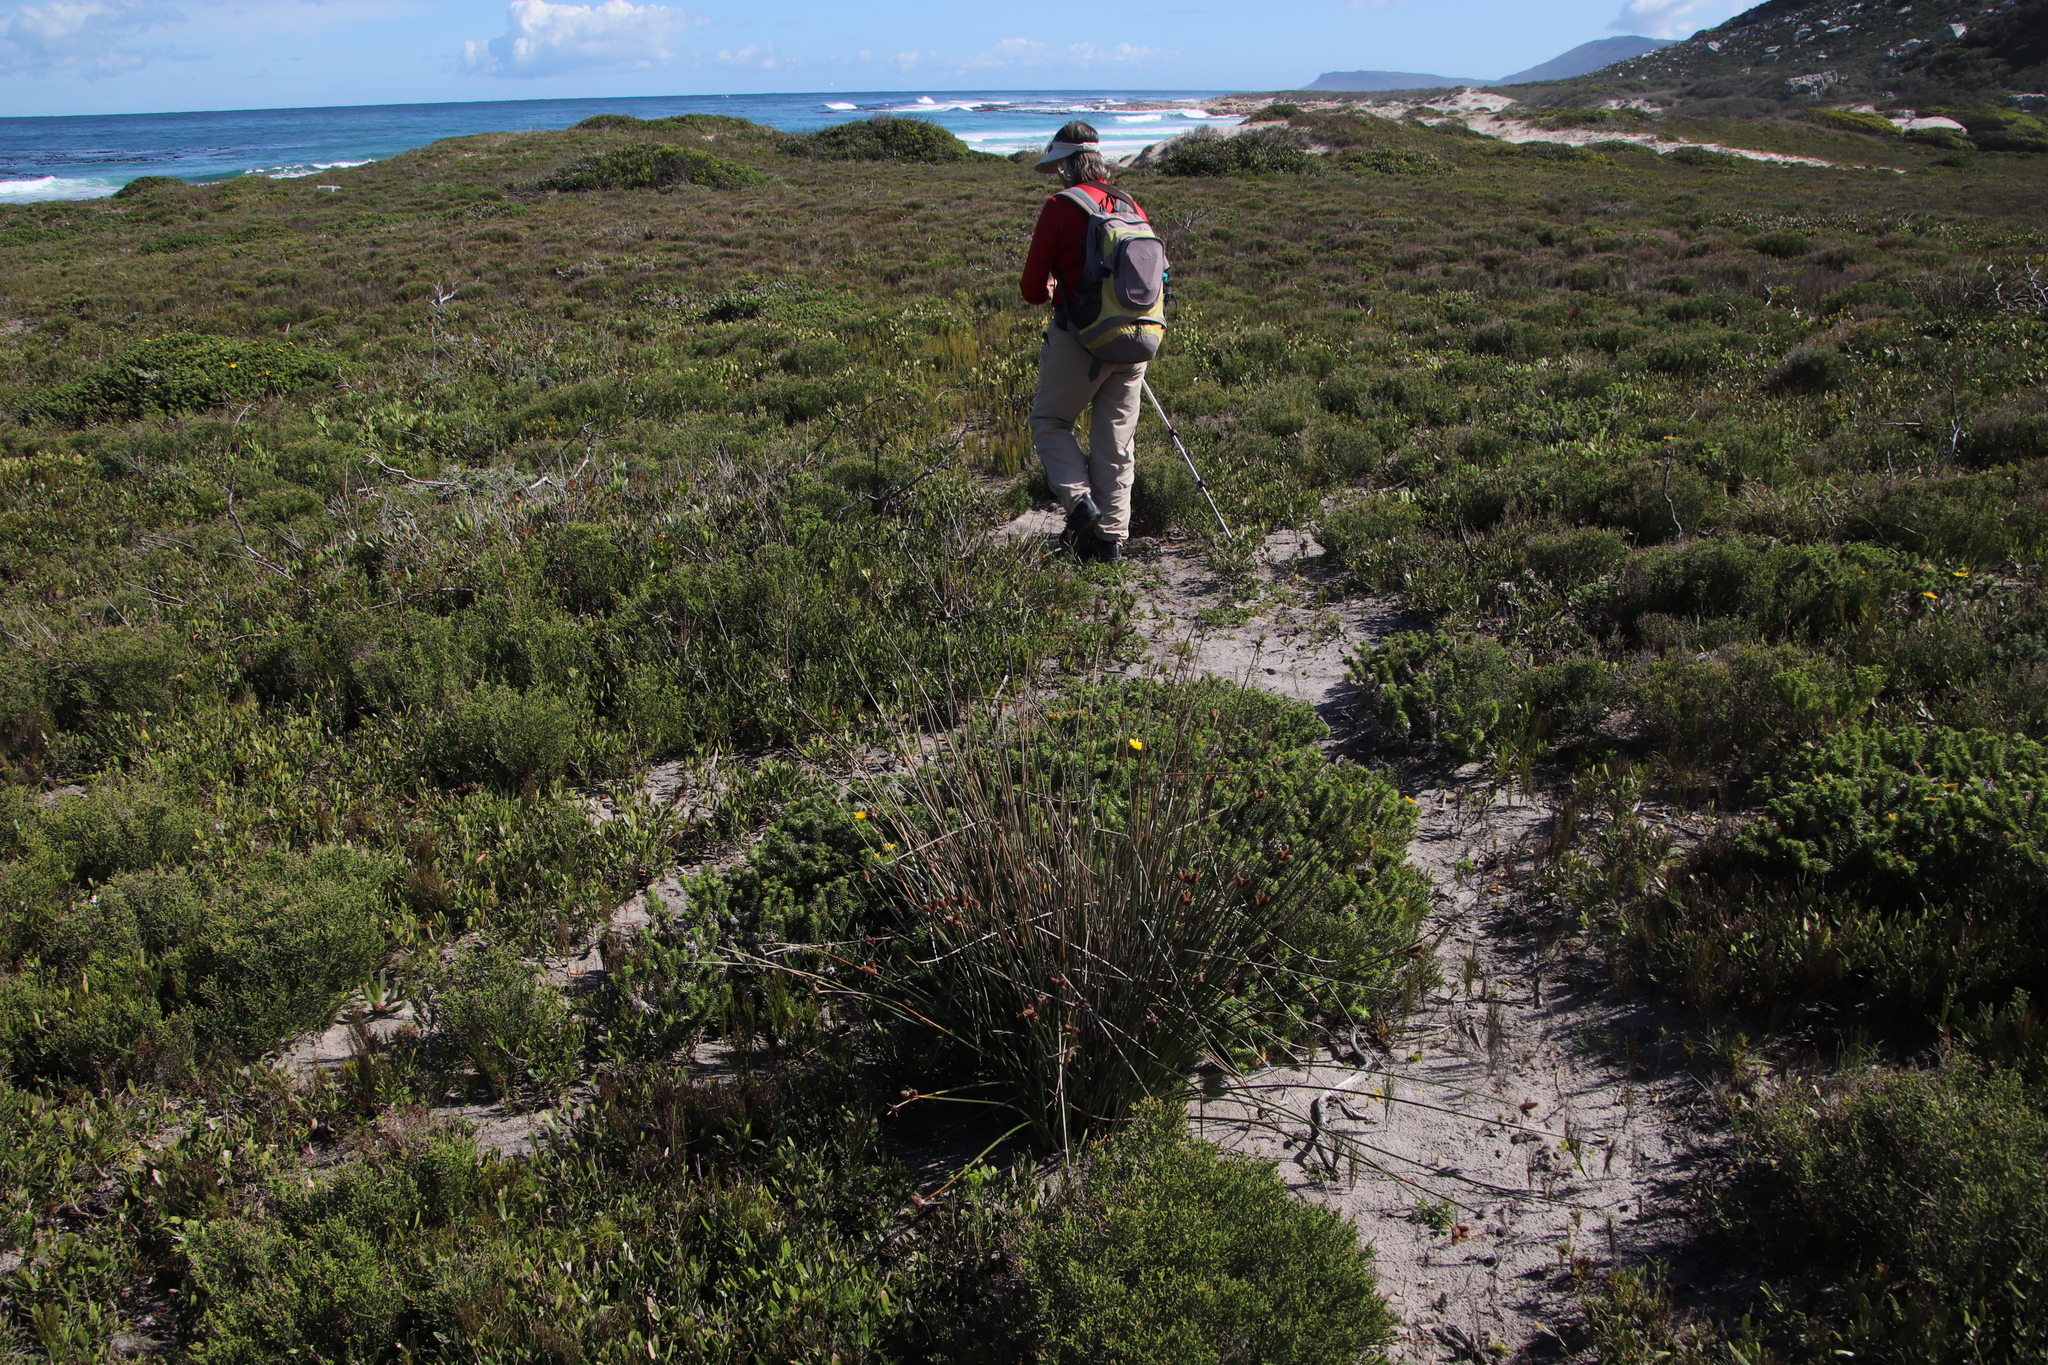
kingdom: Plantae
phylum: Tracheophyta
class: Liliopsida
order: Poales
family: Cyperaceae
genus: Hellmuthia
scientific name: Hellmuthia membranacea
